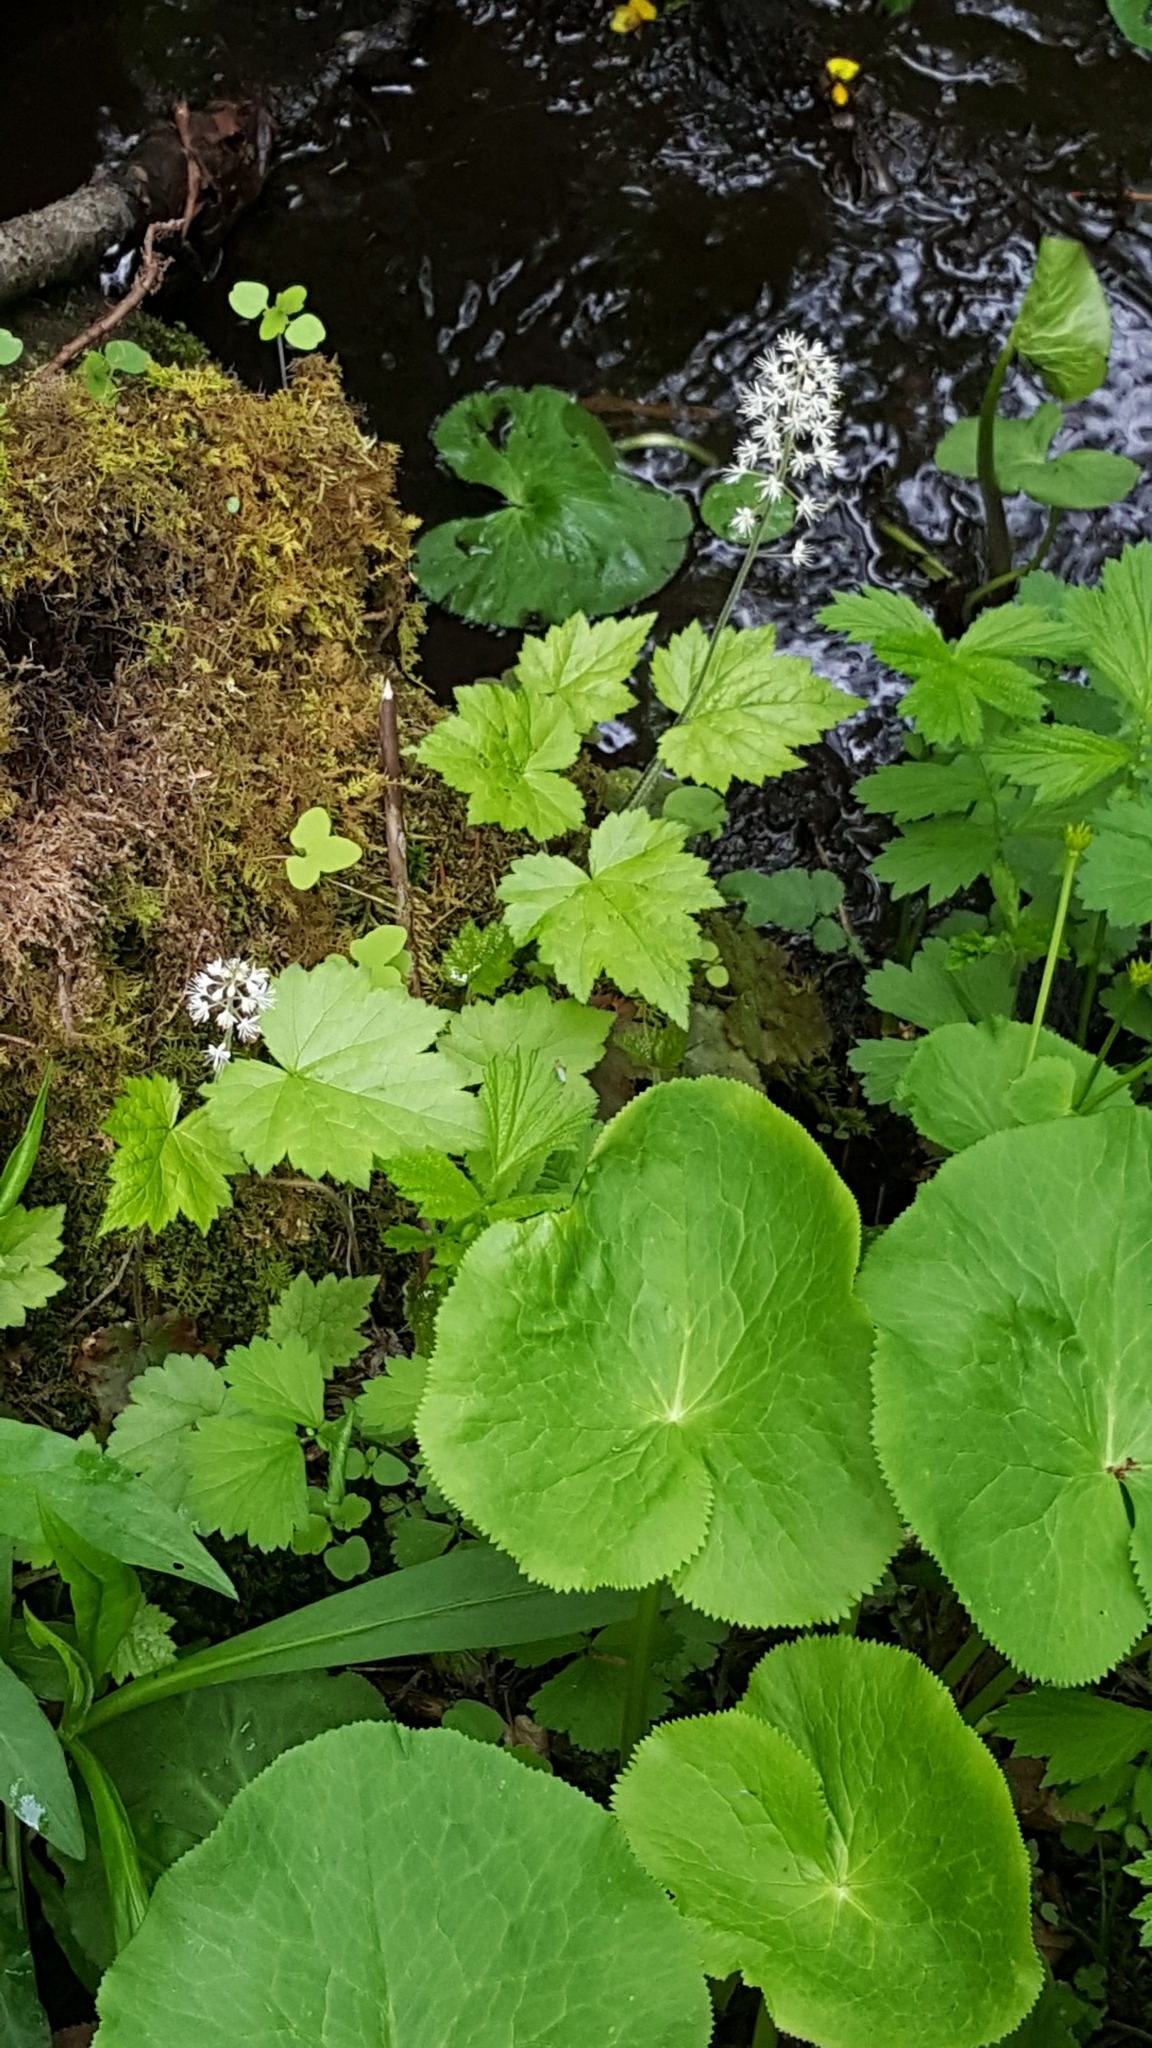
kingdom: Plantae
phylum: Tracheophyta
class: Magnoliopsida
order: Saxifragales
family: Saxifragaceae
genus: Tiarella
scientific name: Tiarella stolonifera
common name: Stoloniferous foamflower
